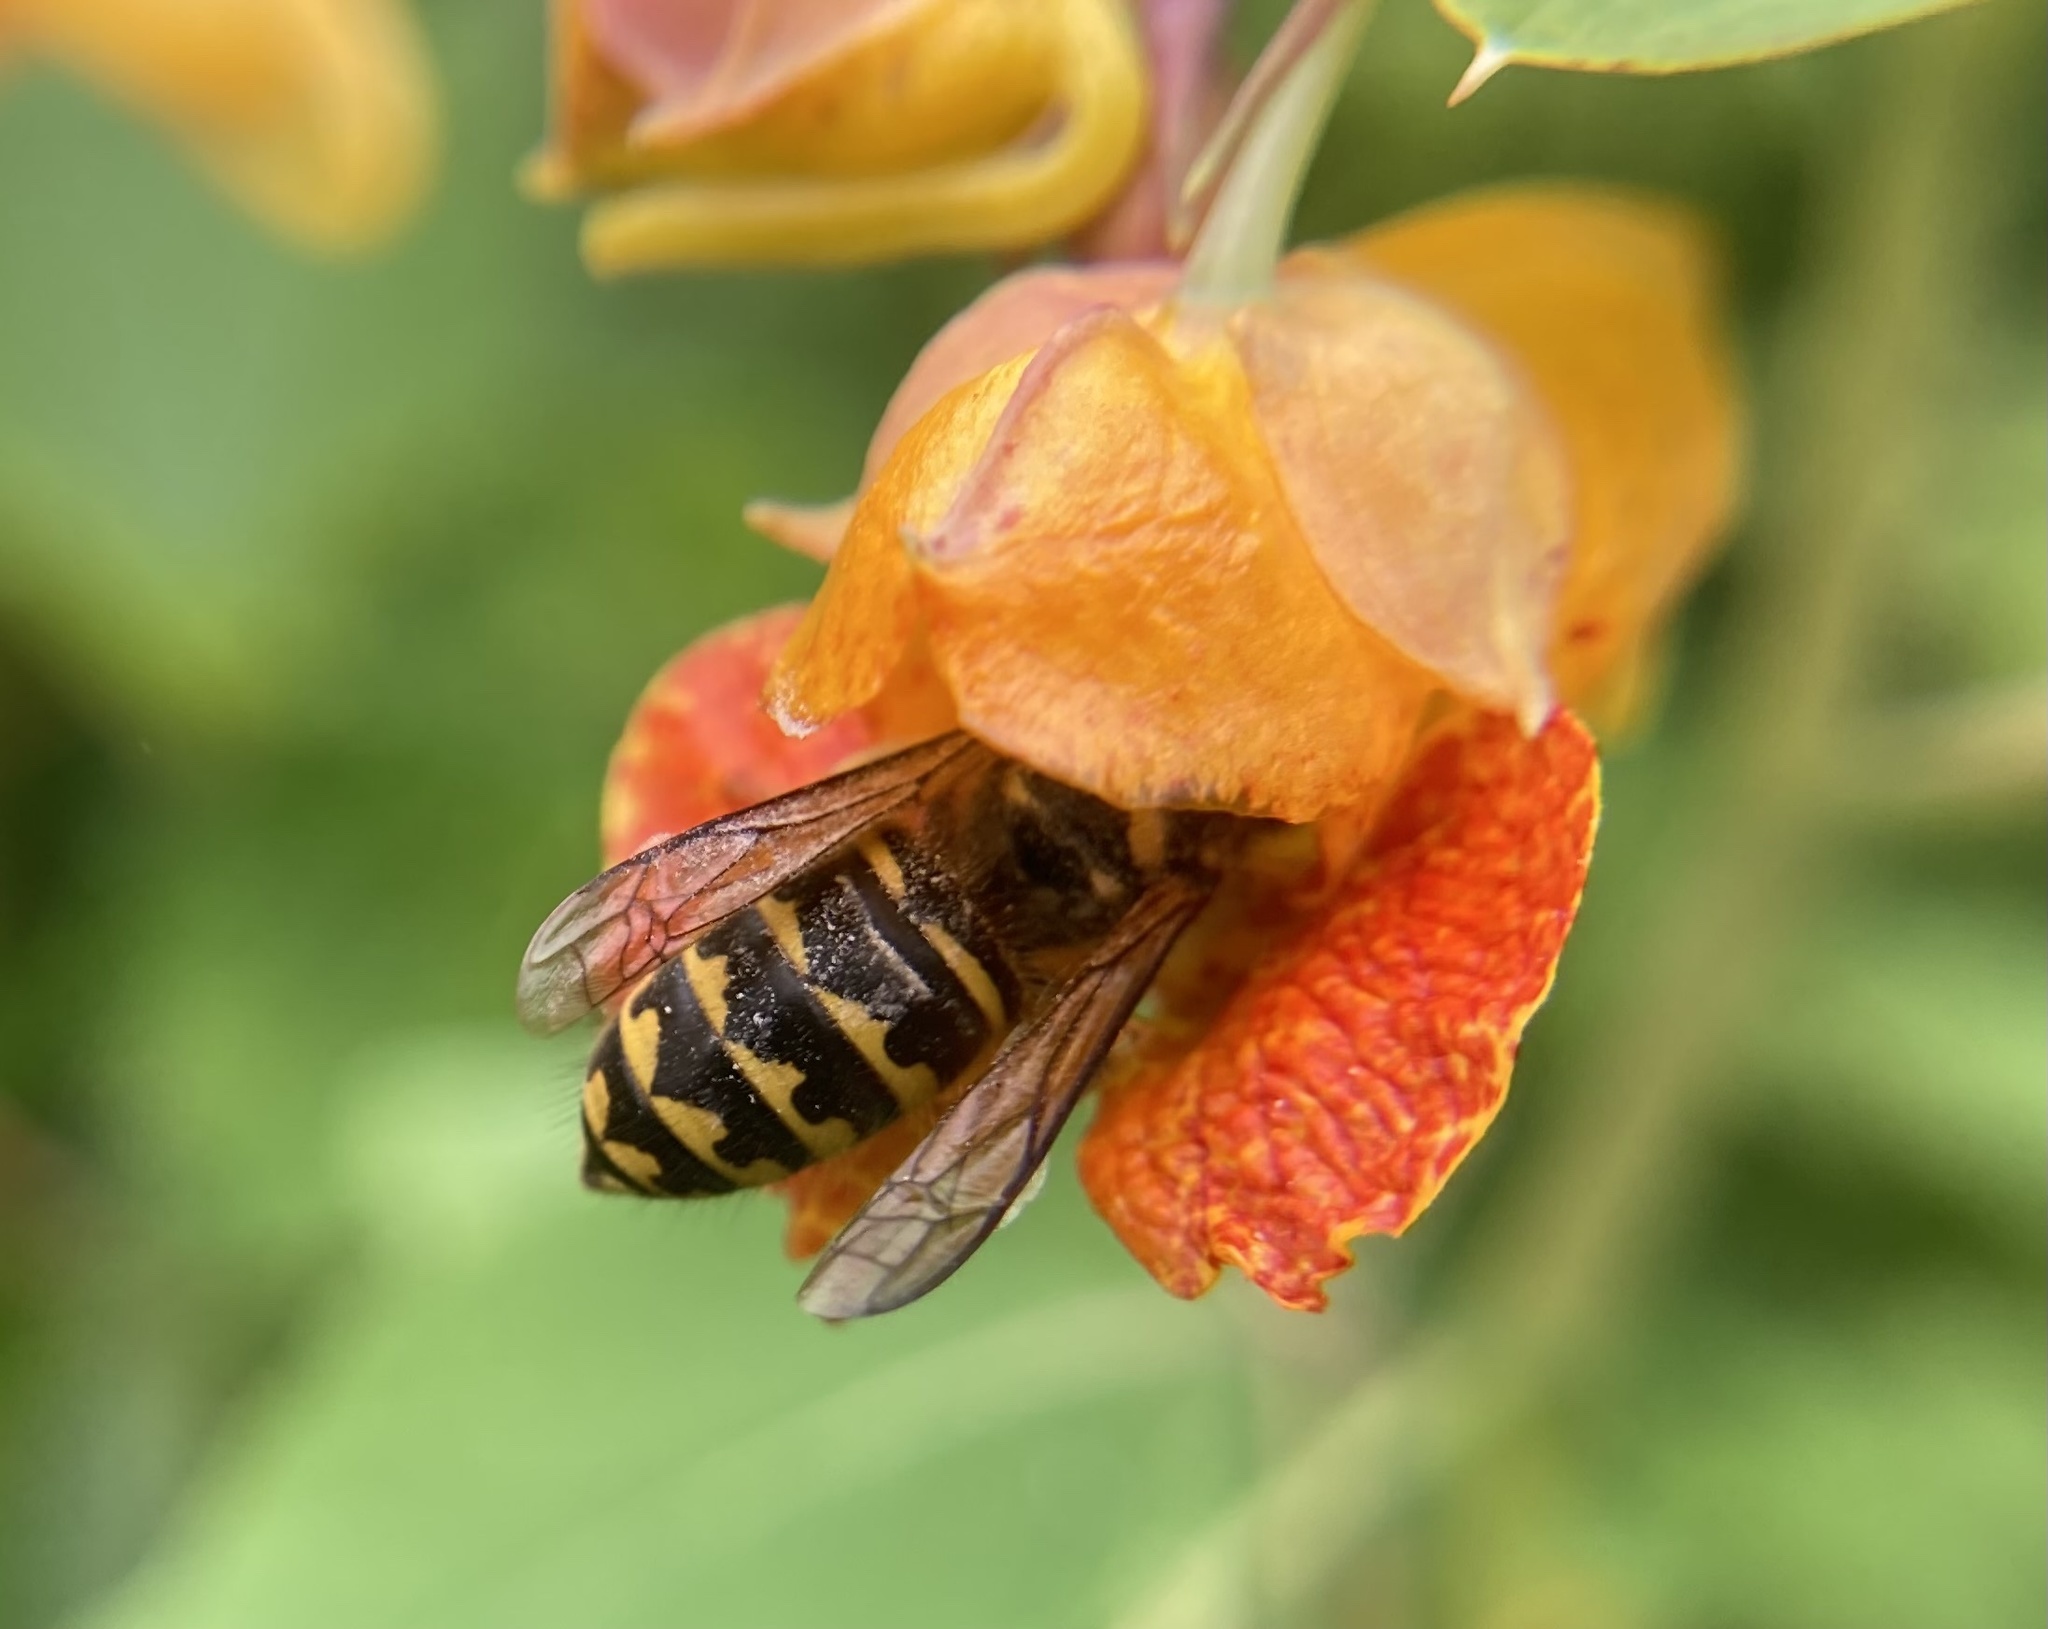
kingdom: Animalia
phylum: Arthropoda
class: Insecta
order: Hymenoptera
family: Vespidae
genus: Dolichovespula
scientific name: Dolichovespula arenaria
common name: Aerial yellowjacket
